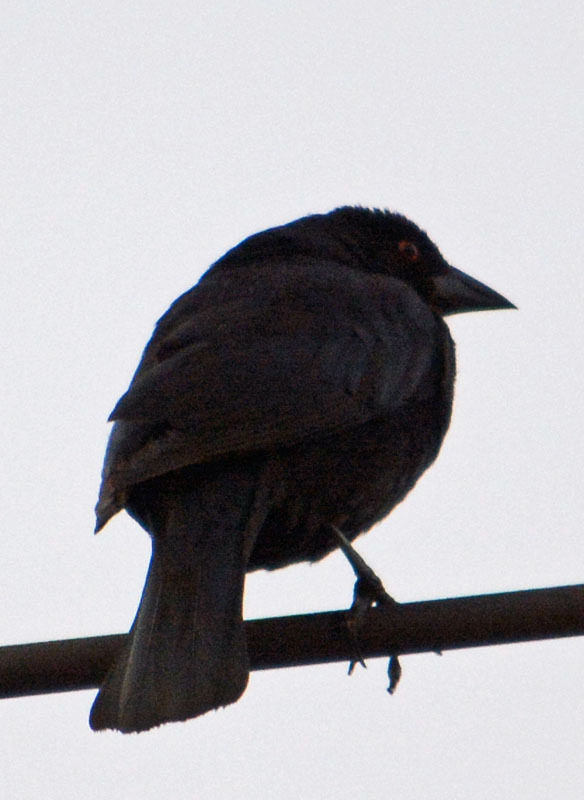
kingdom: Animalia
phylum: Chordata
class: Aves
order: Passeriformes
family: Icteridae
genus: Molothrus
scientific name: Molothrus aeneus
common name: Bronzed cowbird
